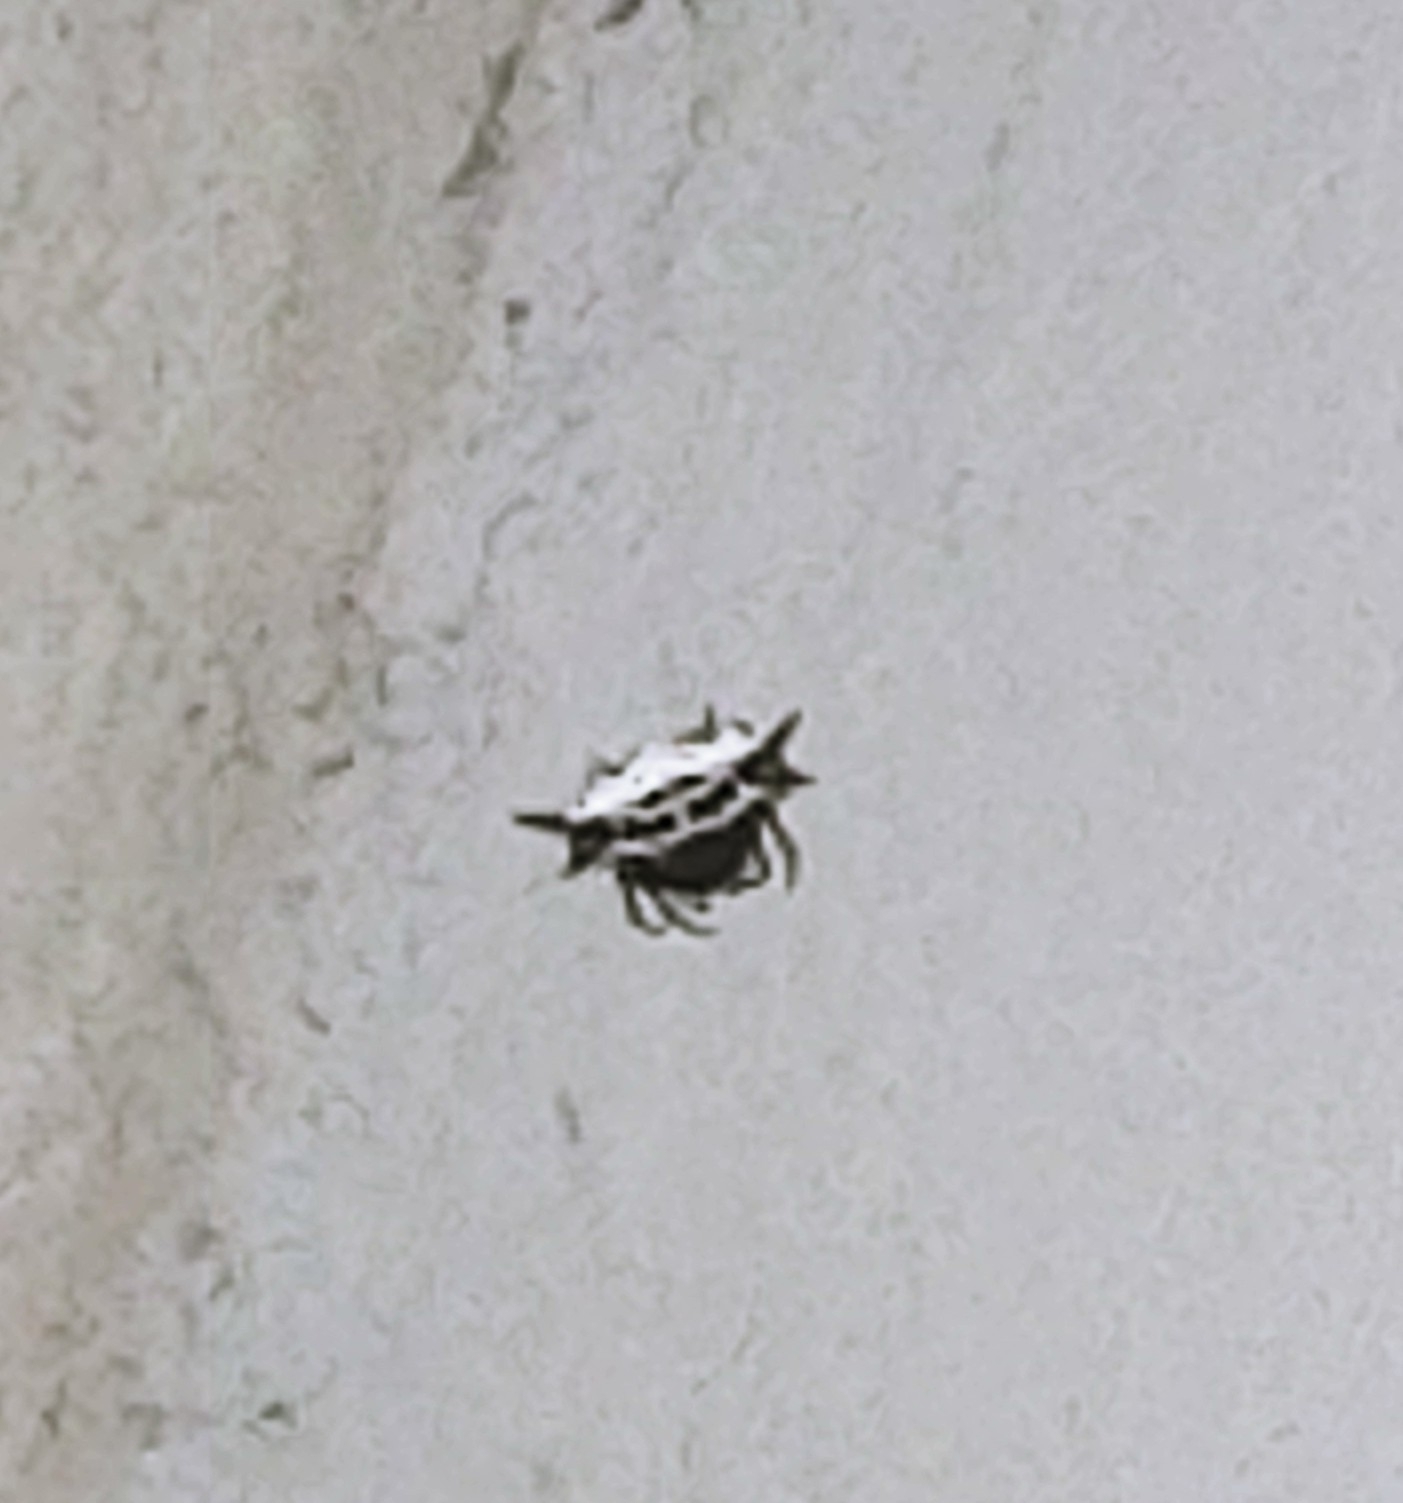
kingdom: Animalia
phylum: Arthropoda
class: Arachnida
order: Araneae
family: Araneidae
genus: Gasteracantha
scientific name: Gasteracantha cancriformis
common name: Orb weavers
